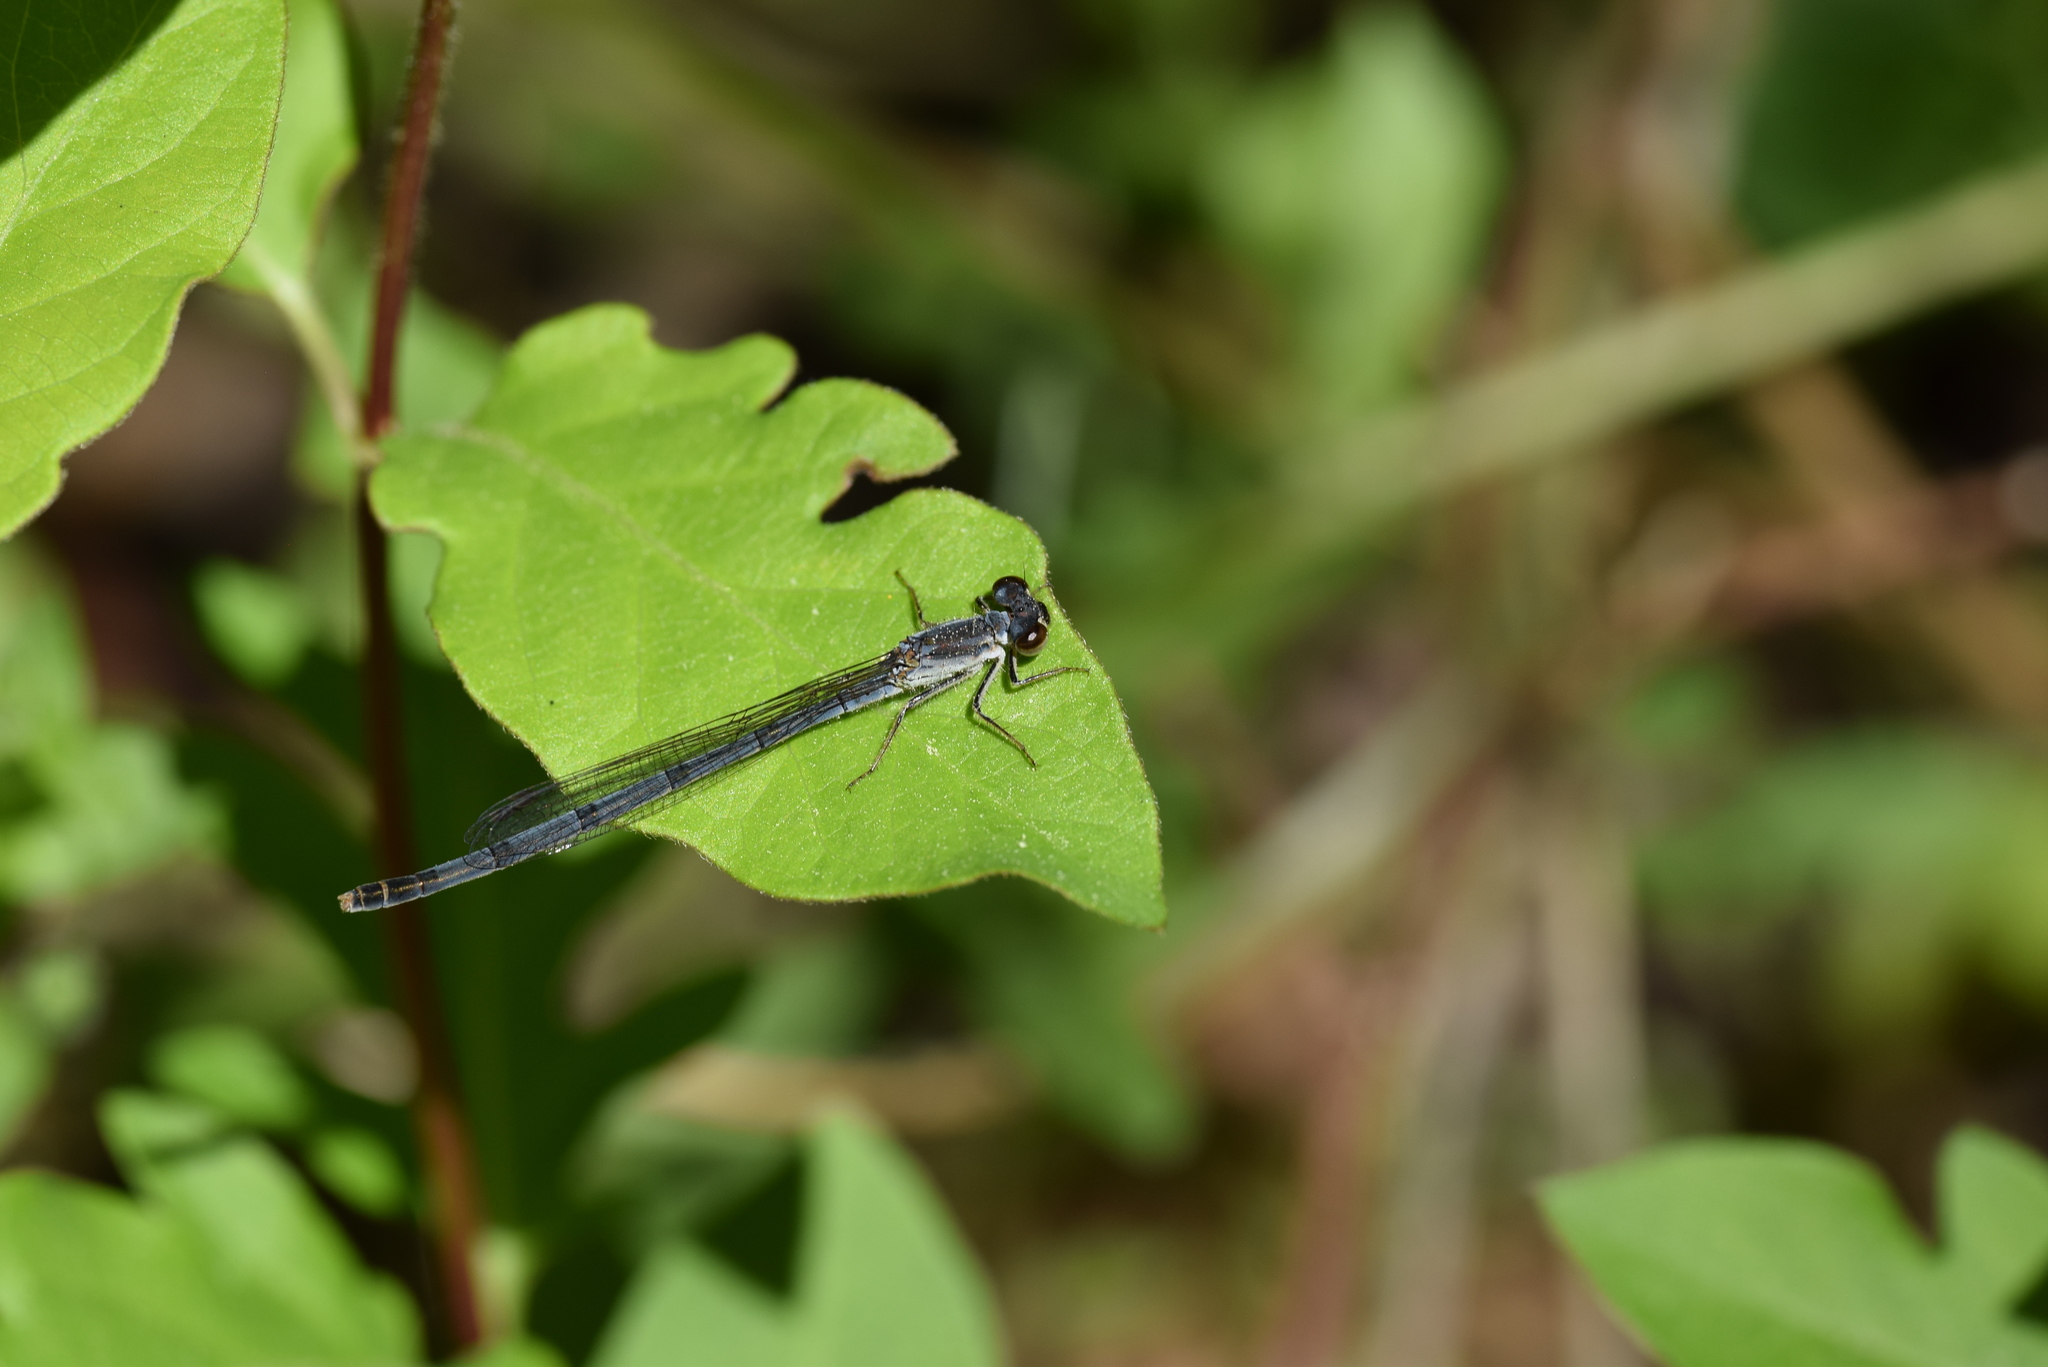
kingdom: Animalia
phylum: Arthropoda
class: Insecta
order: Odonata
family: Coenagrionidae
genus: Ischnura
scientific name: Ischnura posita
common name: Fragile forktail
